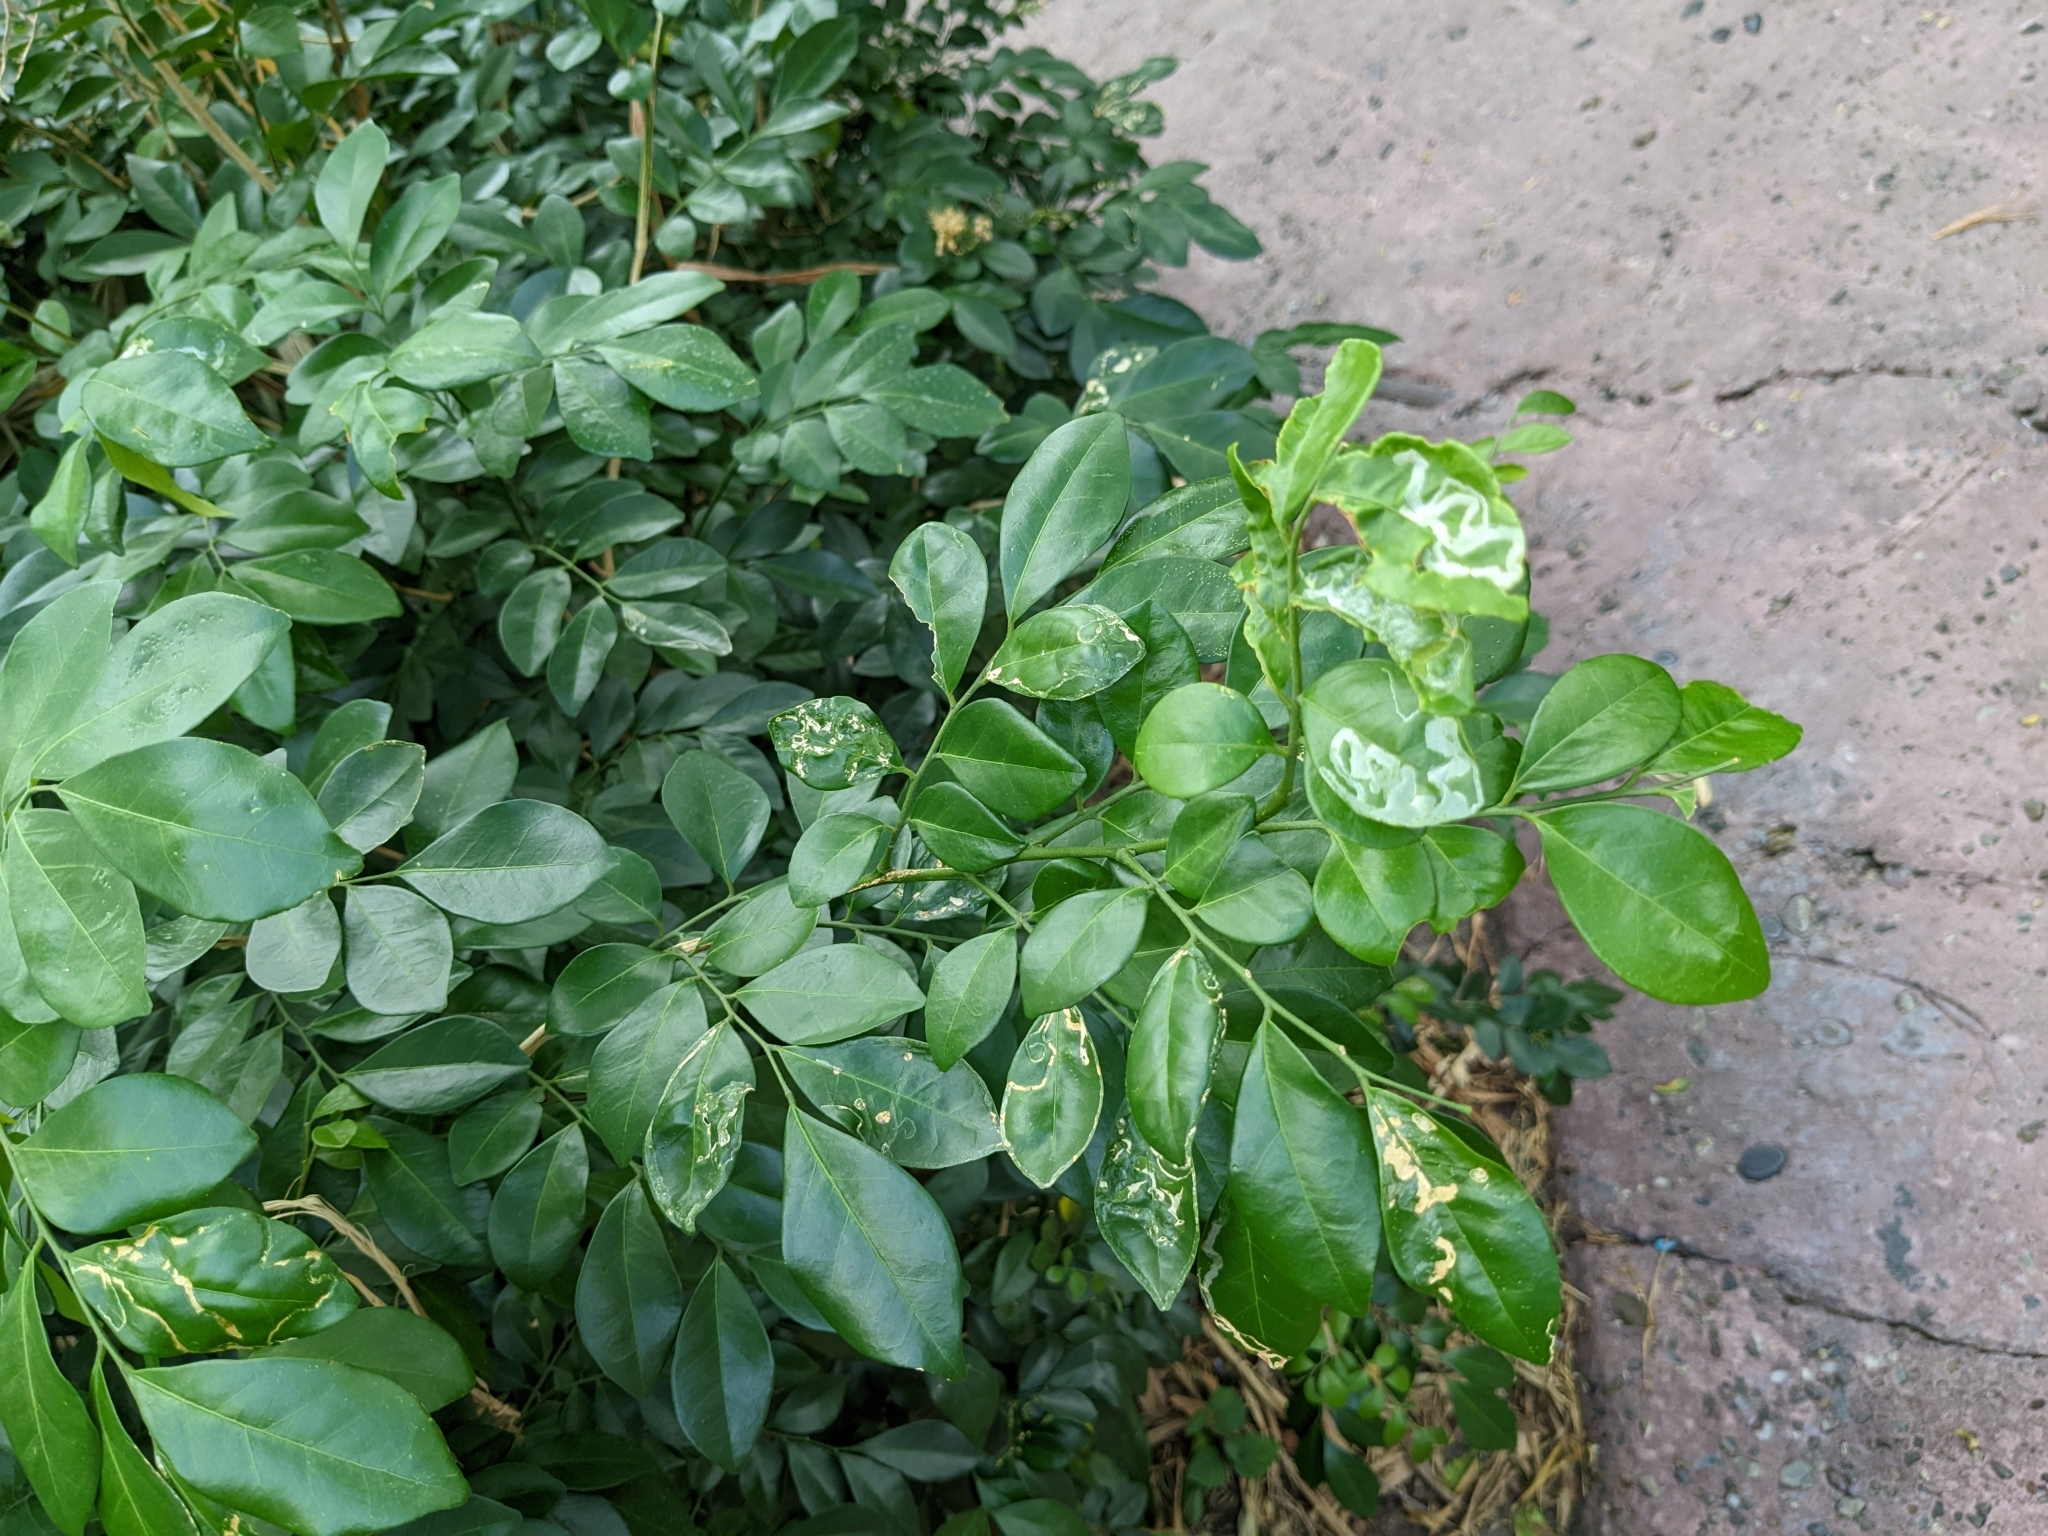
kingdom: Animalia
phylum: Arthropoda
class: Insecta
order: Diptera
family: Agromyzidae
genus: Liriomyza
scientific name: Liriomyza schmidti
